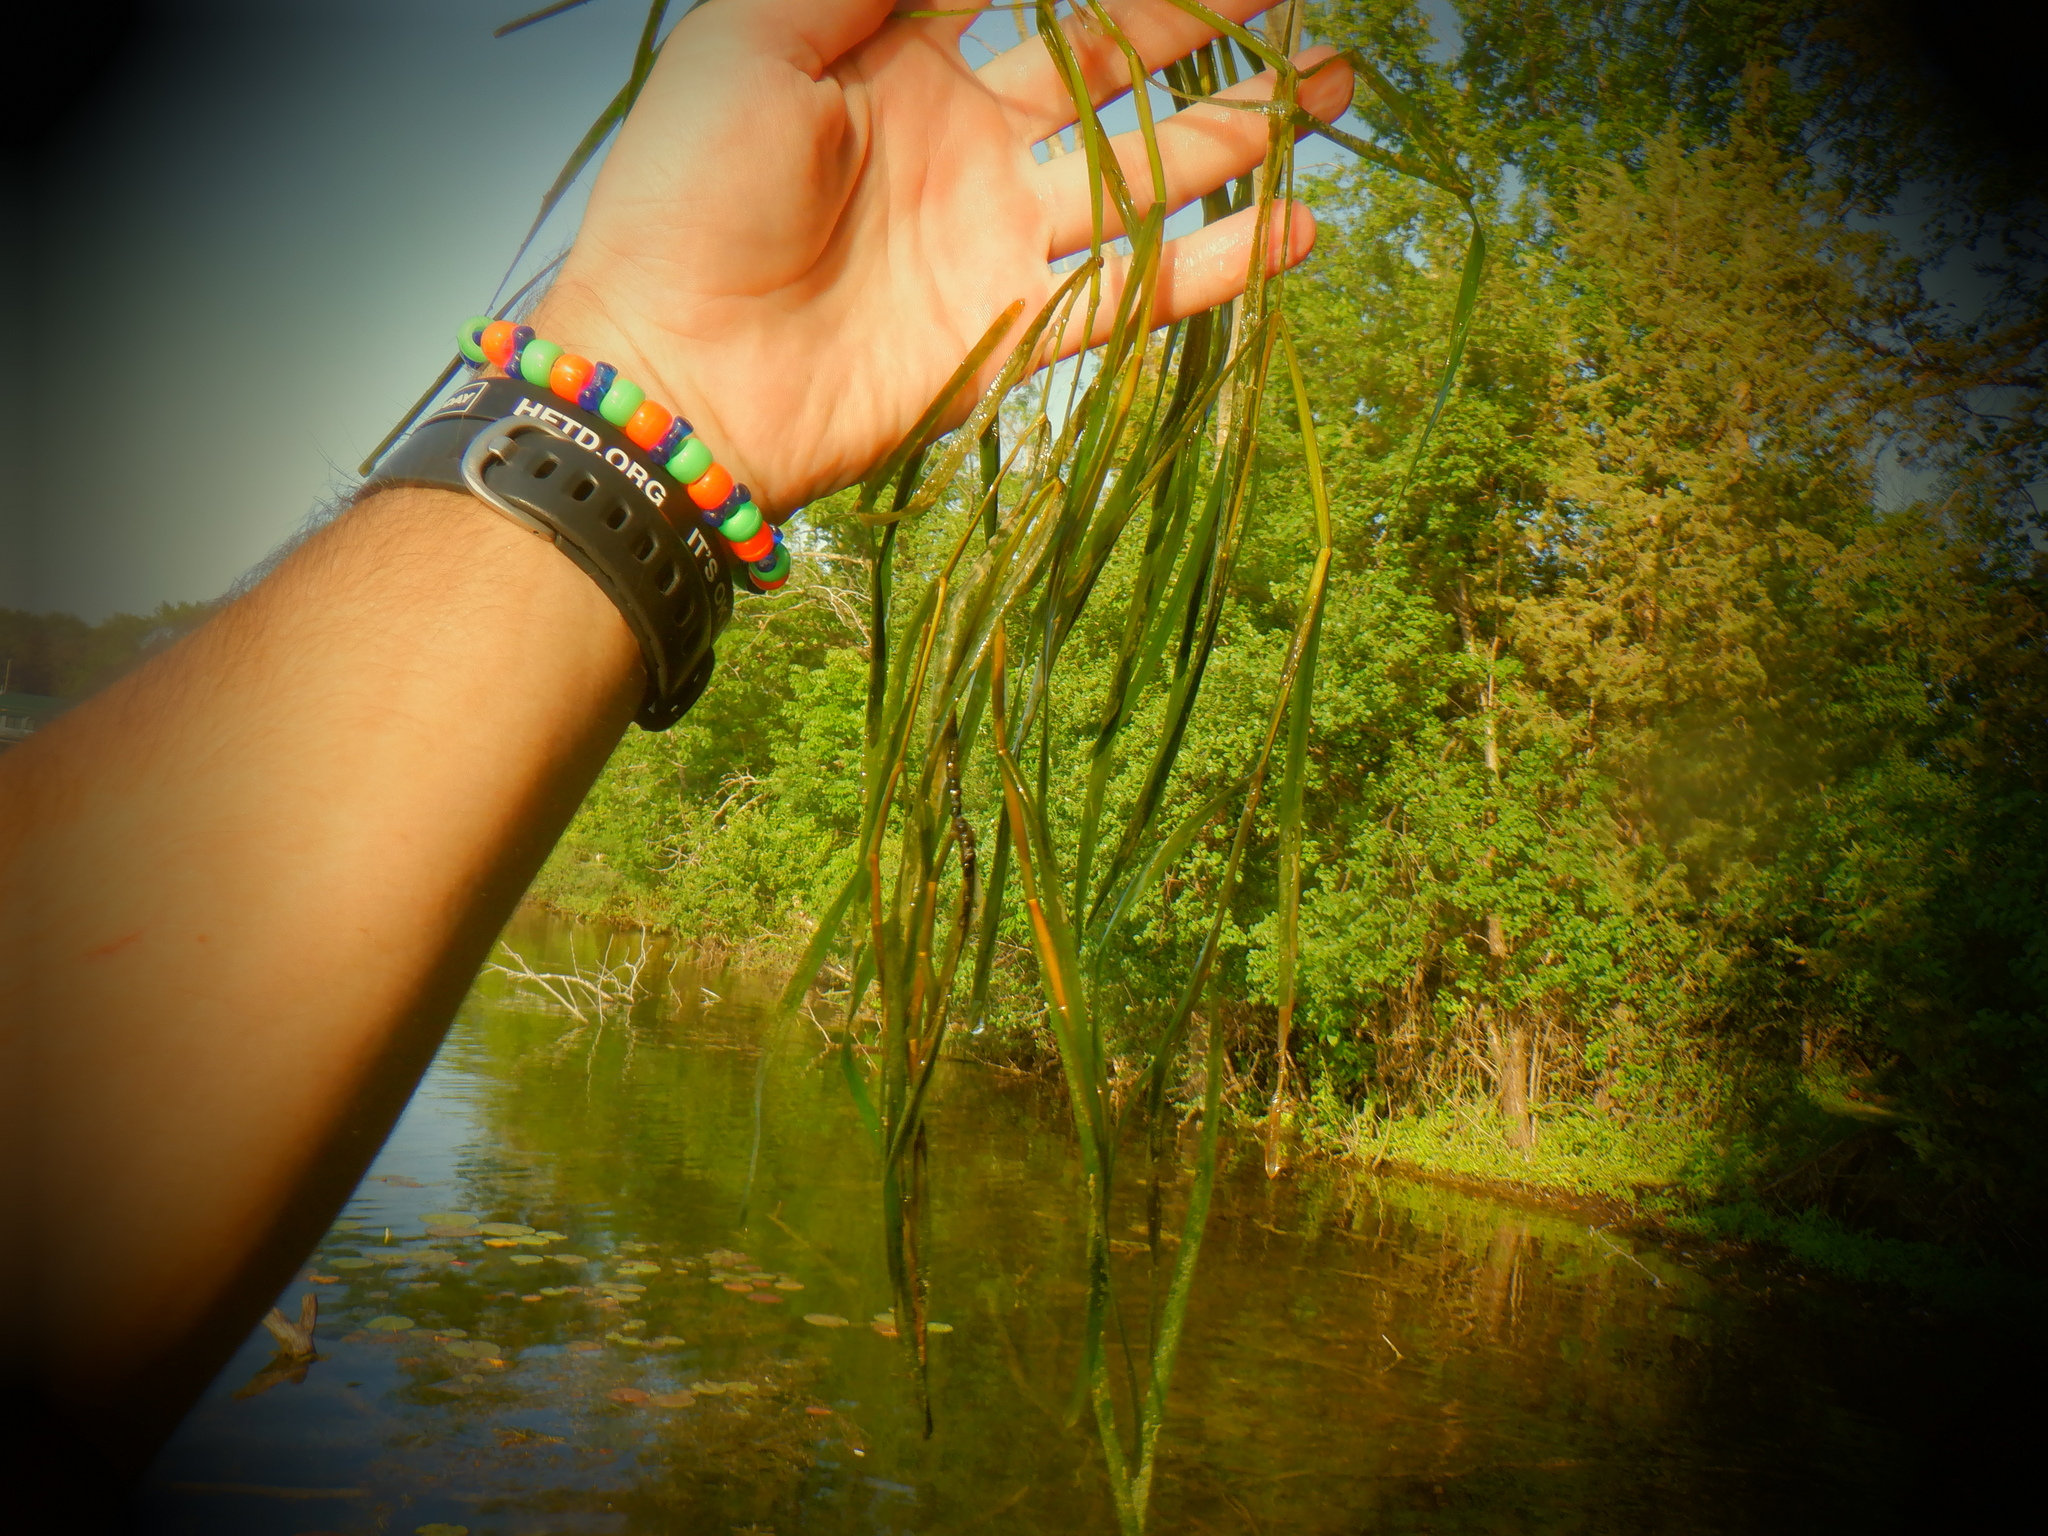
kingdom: Plantae
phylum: Tracheophyta
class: Liliopsida
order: Alismatales
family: Potamogetonaceae
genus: Potamogeton
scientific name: Potamogeton zosteriformis
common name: Eelgrass pondweed
